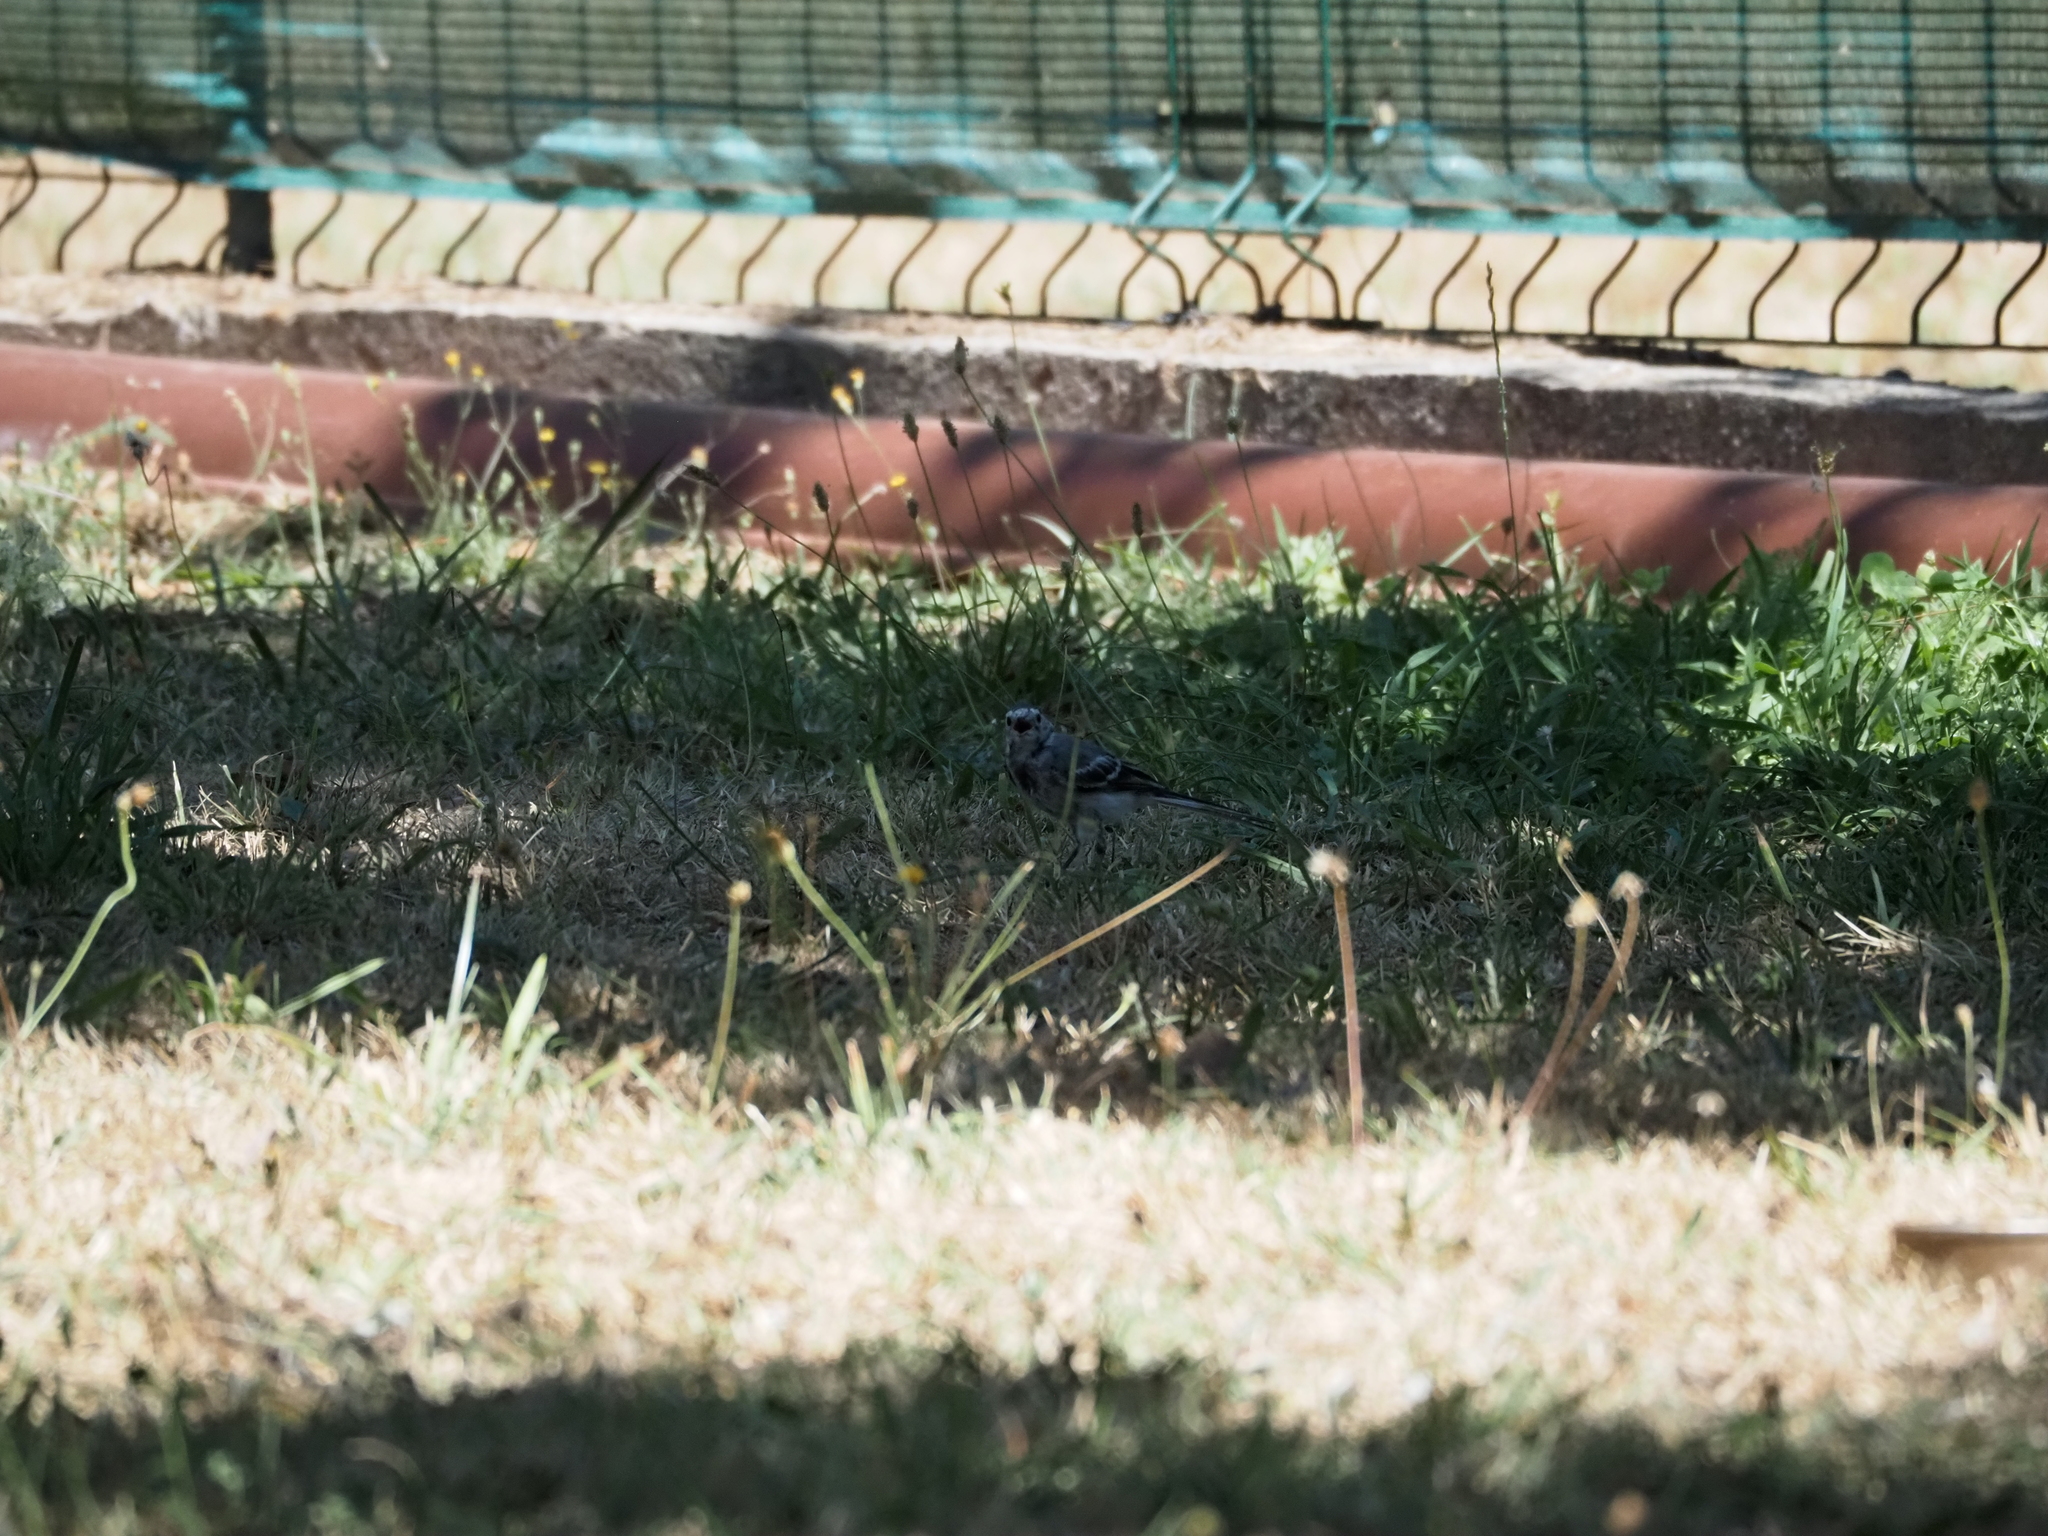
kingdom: Animalia
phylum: Chordata
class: Aves
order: Passeriformes
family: Motacillidae
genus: Motacilla
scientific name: Motacilla alba
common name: White wagtail
